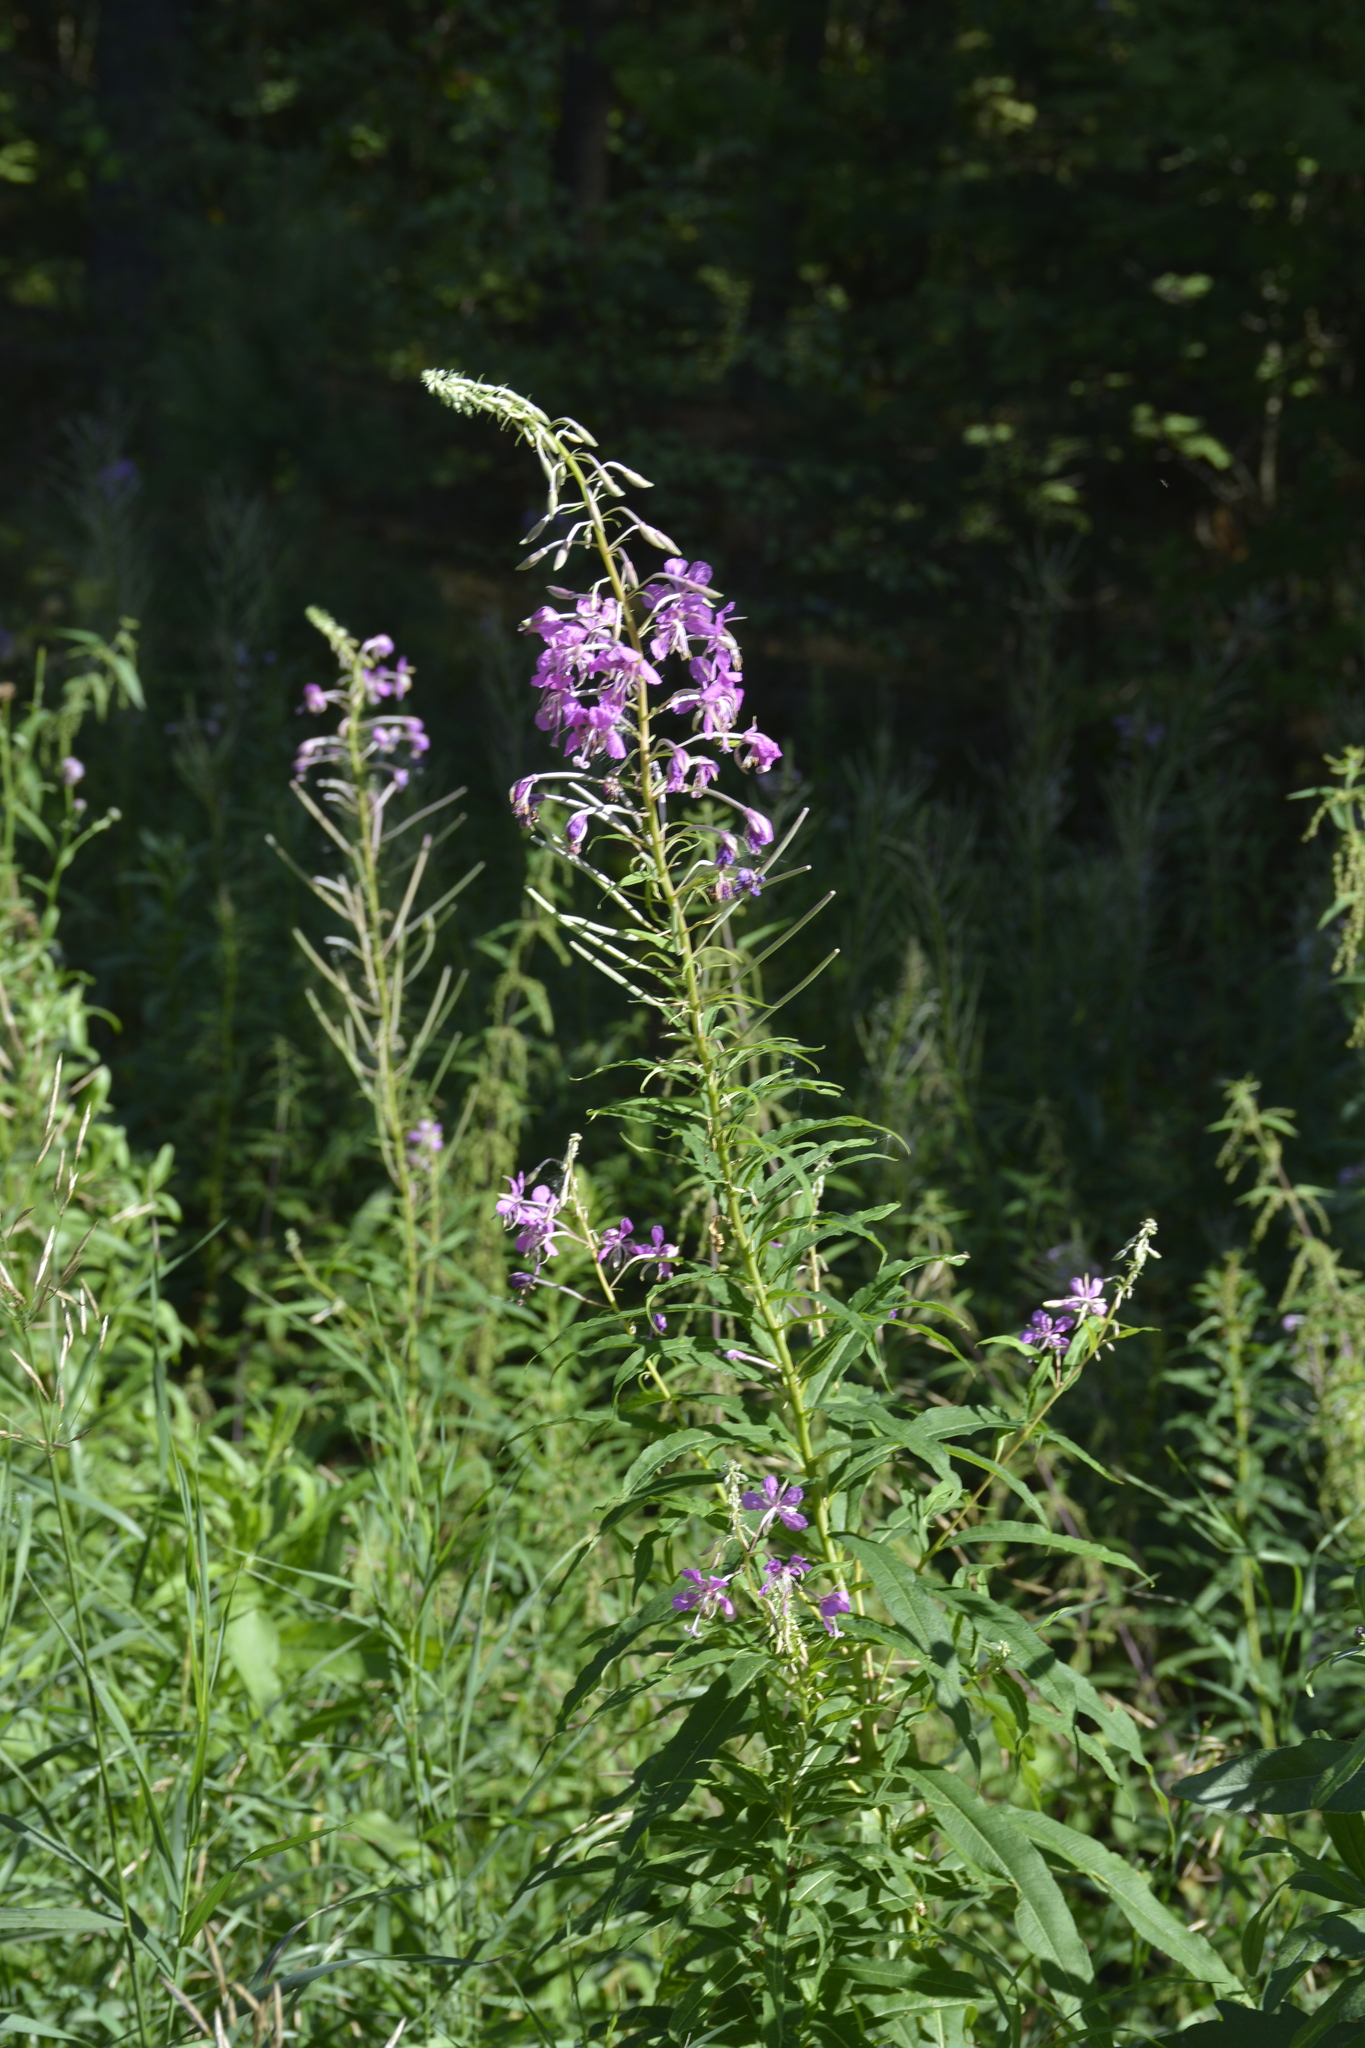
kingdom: Plantae
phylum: Tracheophyta
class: Magnoliopsida
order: Myrtales
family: Onagraceae
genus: Chamaenerion
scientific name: Chamaenerion angustifolium
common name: Fireweed
